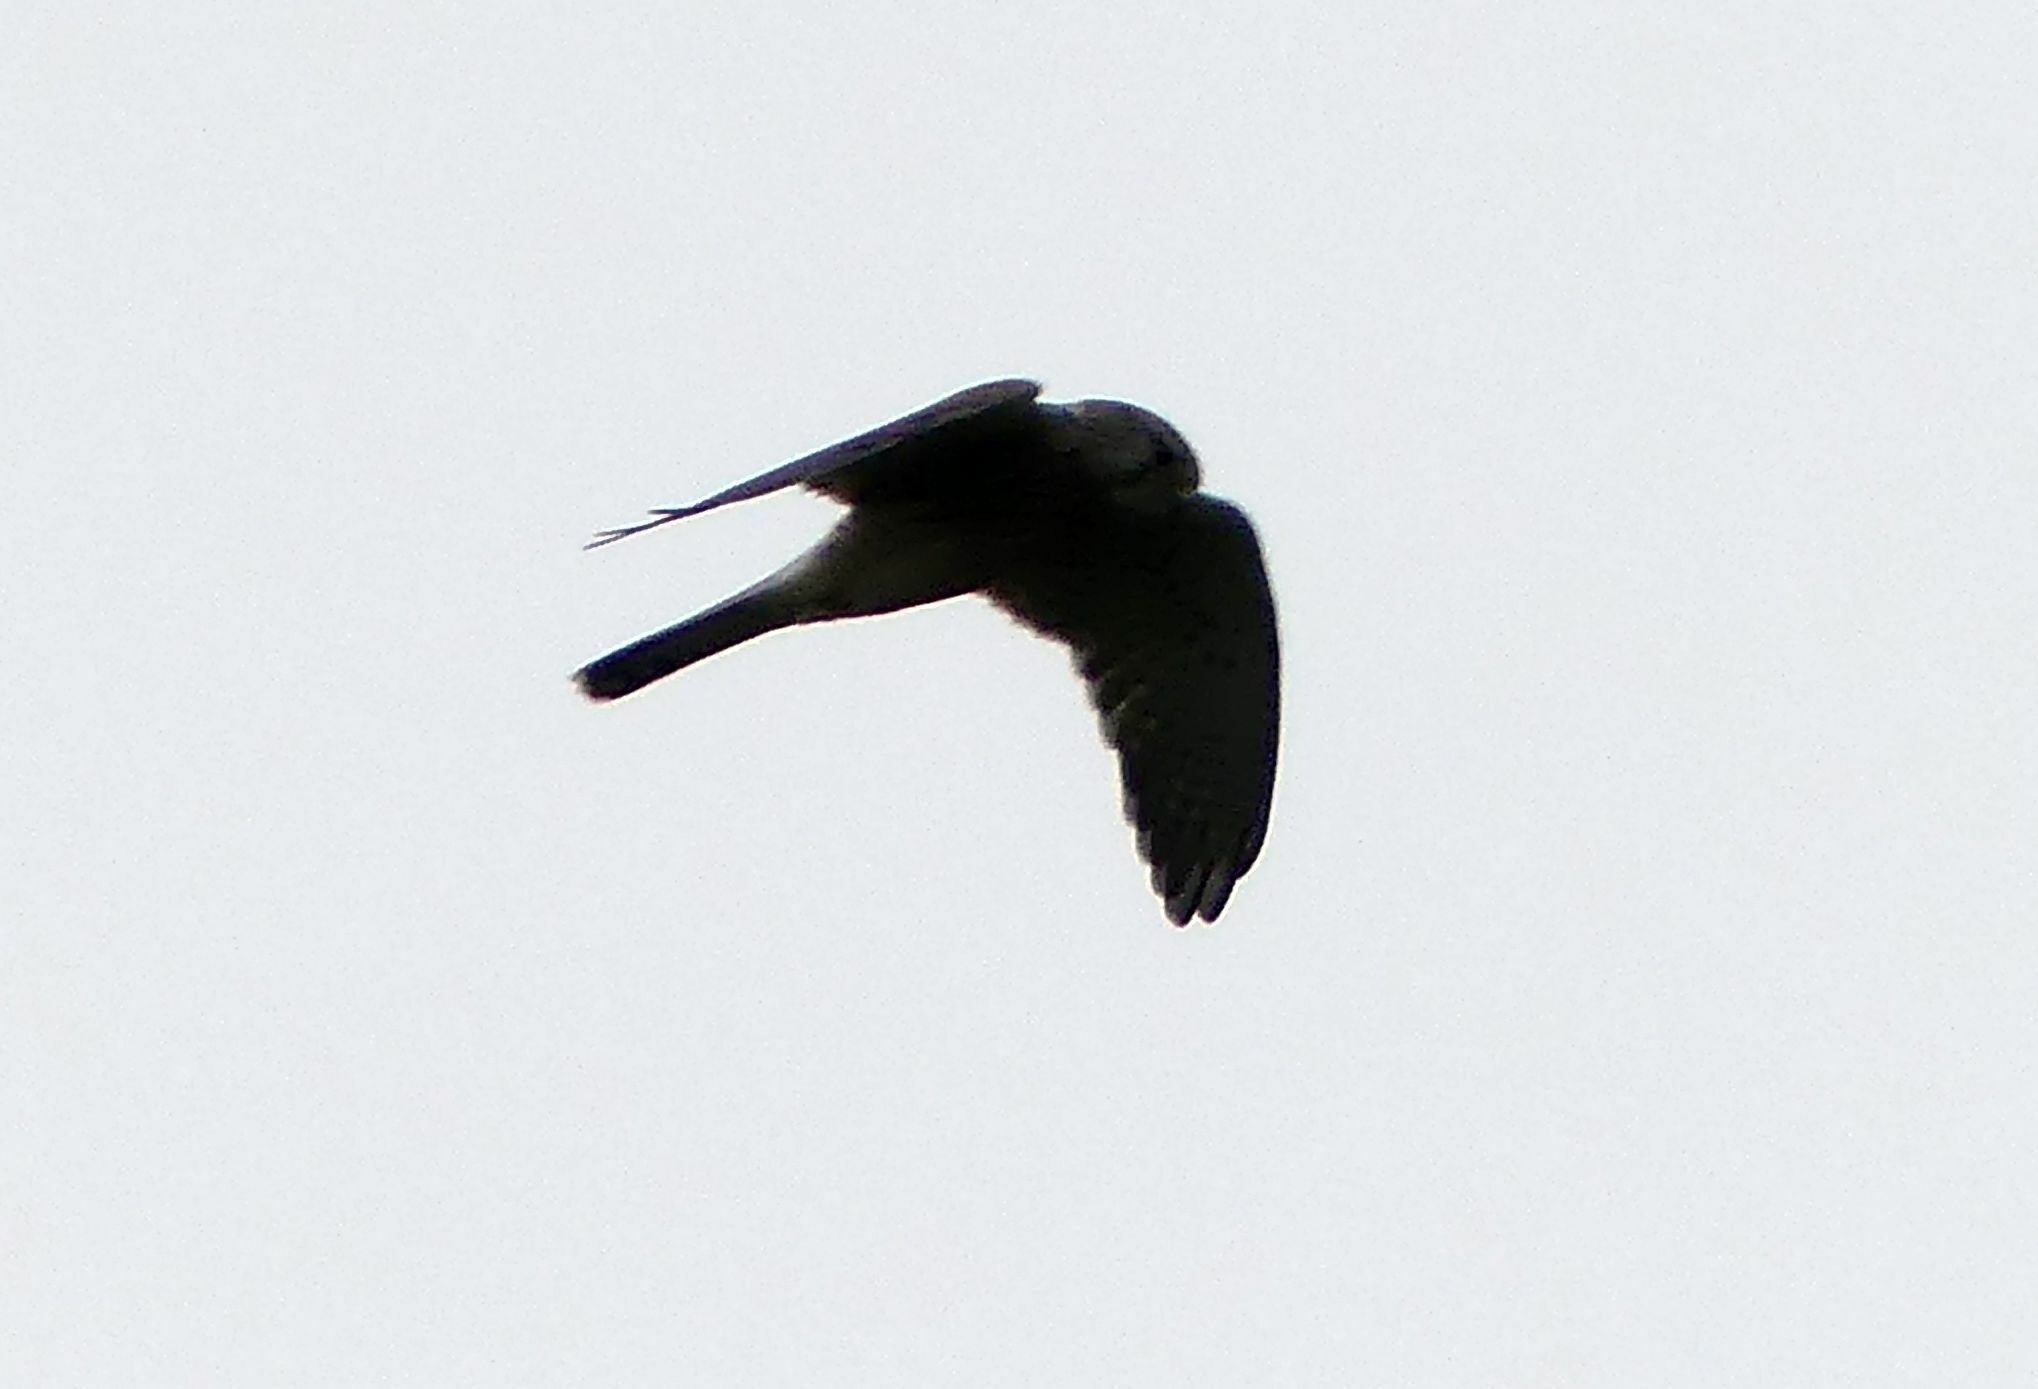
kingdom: Animalia
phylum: Chordata
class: Aves
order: Falconiformes
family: Falconidae
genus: Falco
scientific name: Falco tinnunculus
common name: Common kestrel
